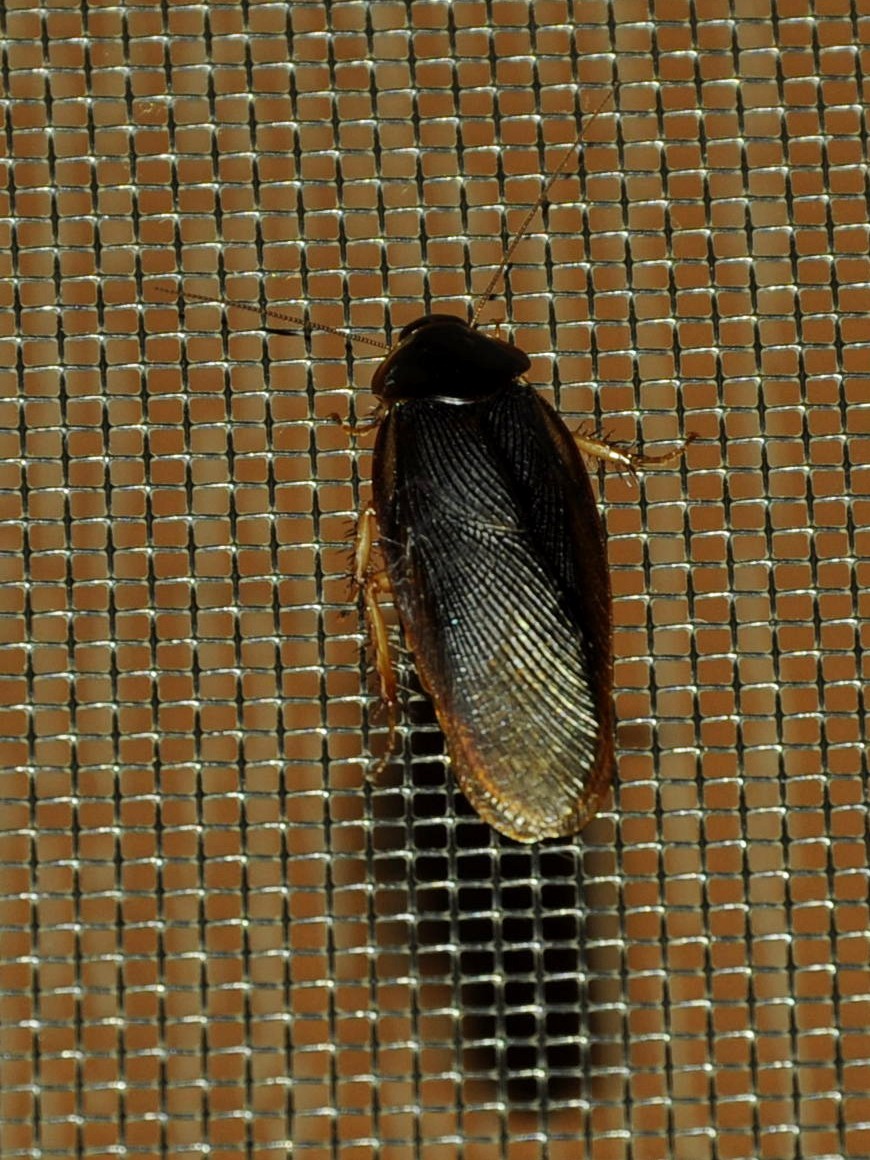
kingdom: Animalia
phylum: Arthropoda
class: Insecta
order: Blattodea
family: Blaberidae
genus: Pycnoscelus
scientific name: Pycnoscelus surinamensis
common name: Surinam cockroach
